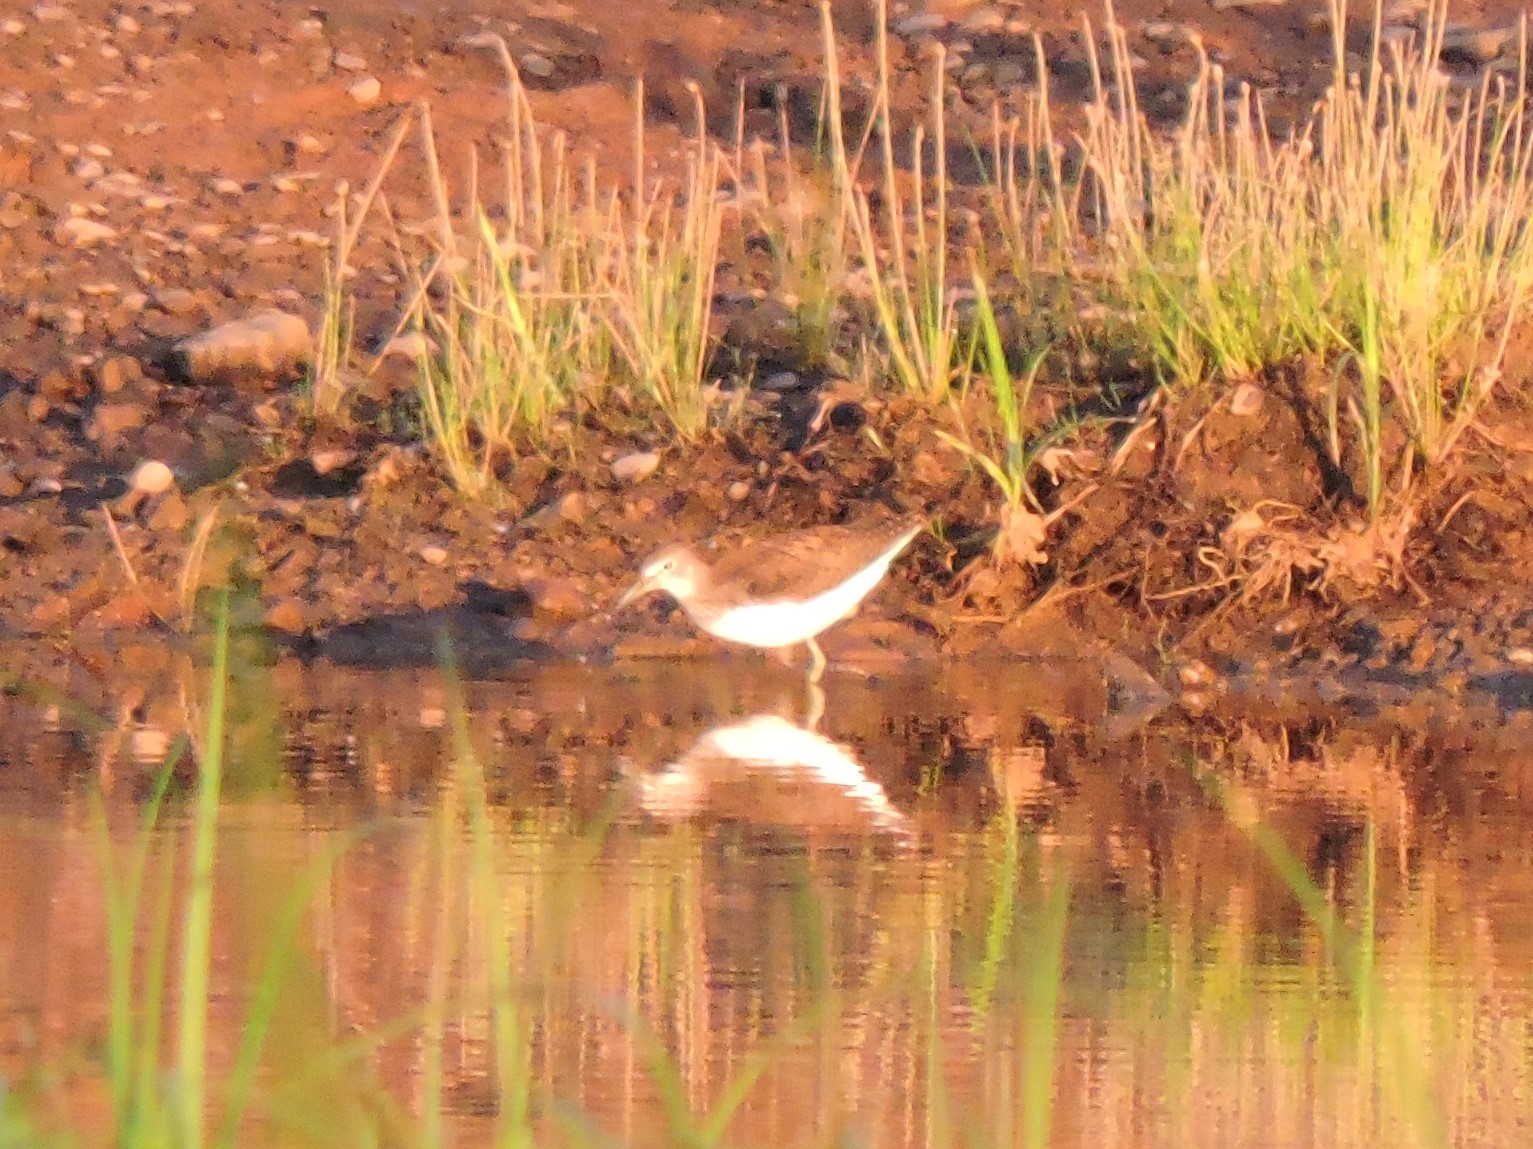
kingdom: Animalia
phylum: Chordata
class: Aves
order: Charadriiformes
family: Scolopacidae
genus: Tringa
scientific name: Tringa ochropus
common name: Green sandpiper
